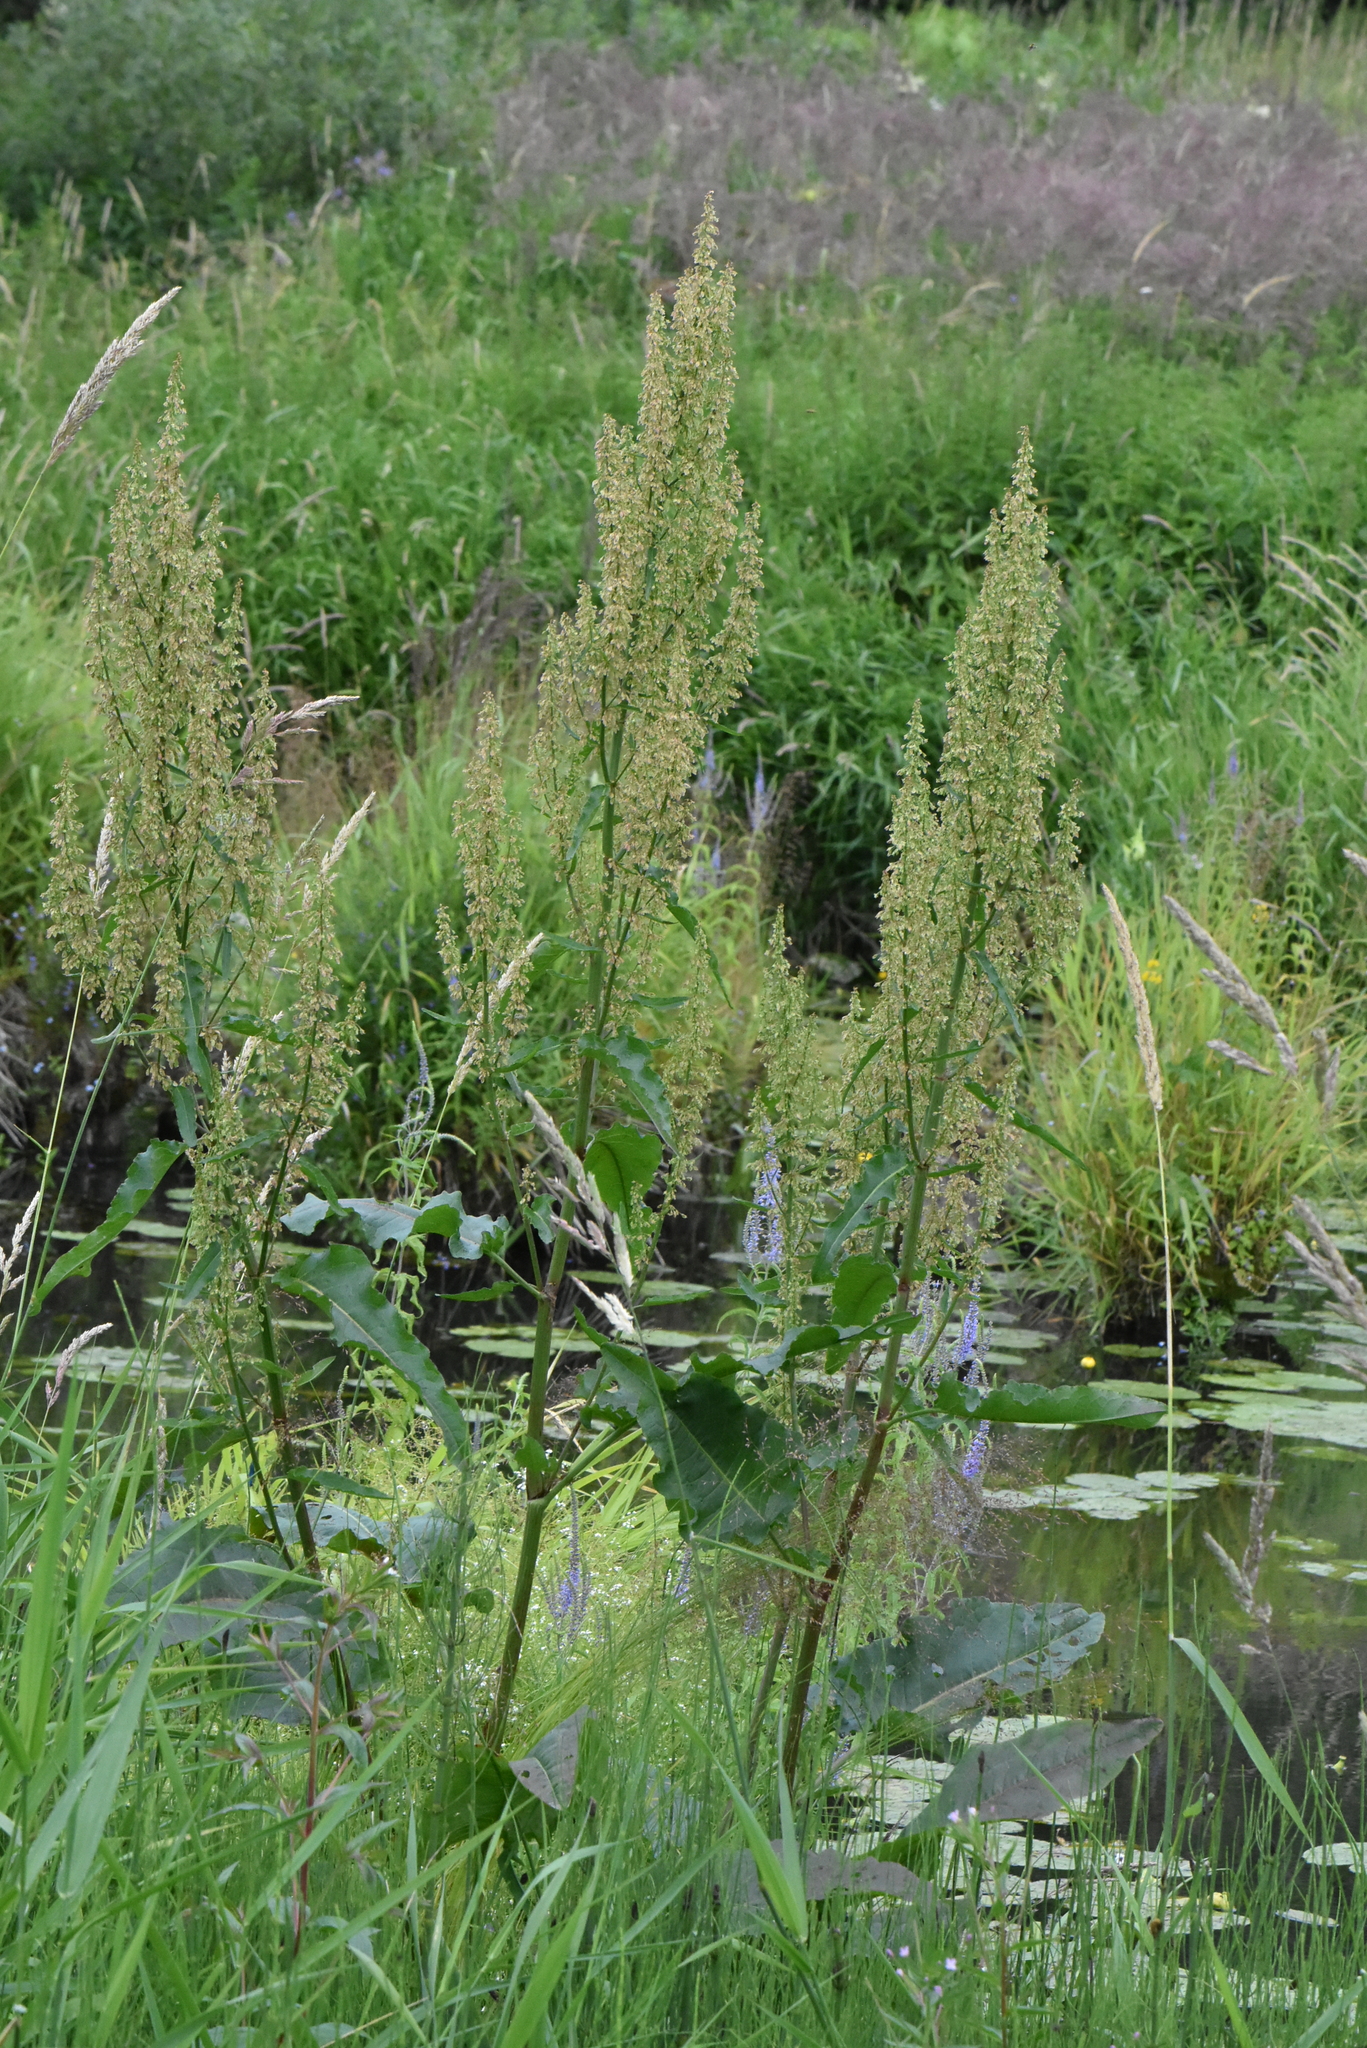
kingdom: Plantae
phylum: Tracheophyta
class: Magnoliopsida
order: Caryophyllales
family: Polygonaceae
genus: Rumex
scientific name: Rumex aquaticus
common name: Scottish dock
